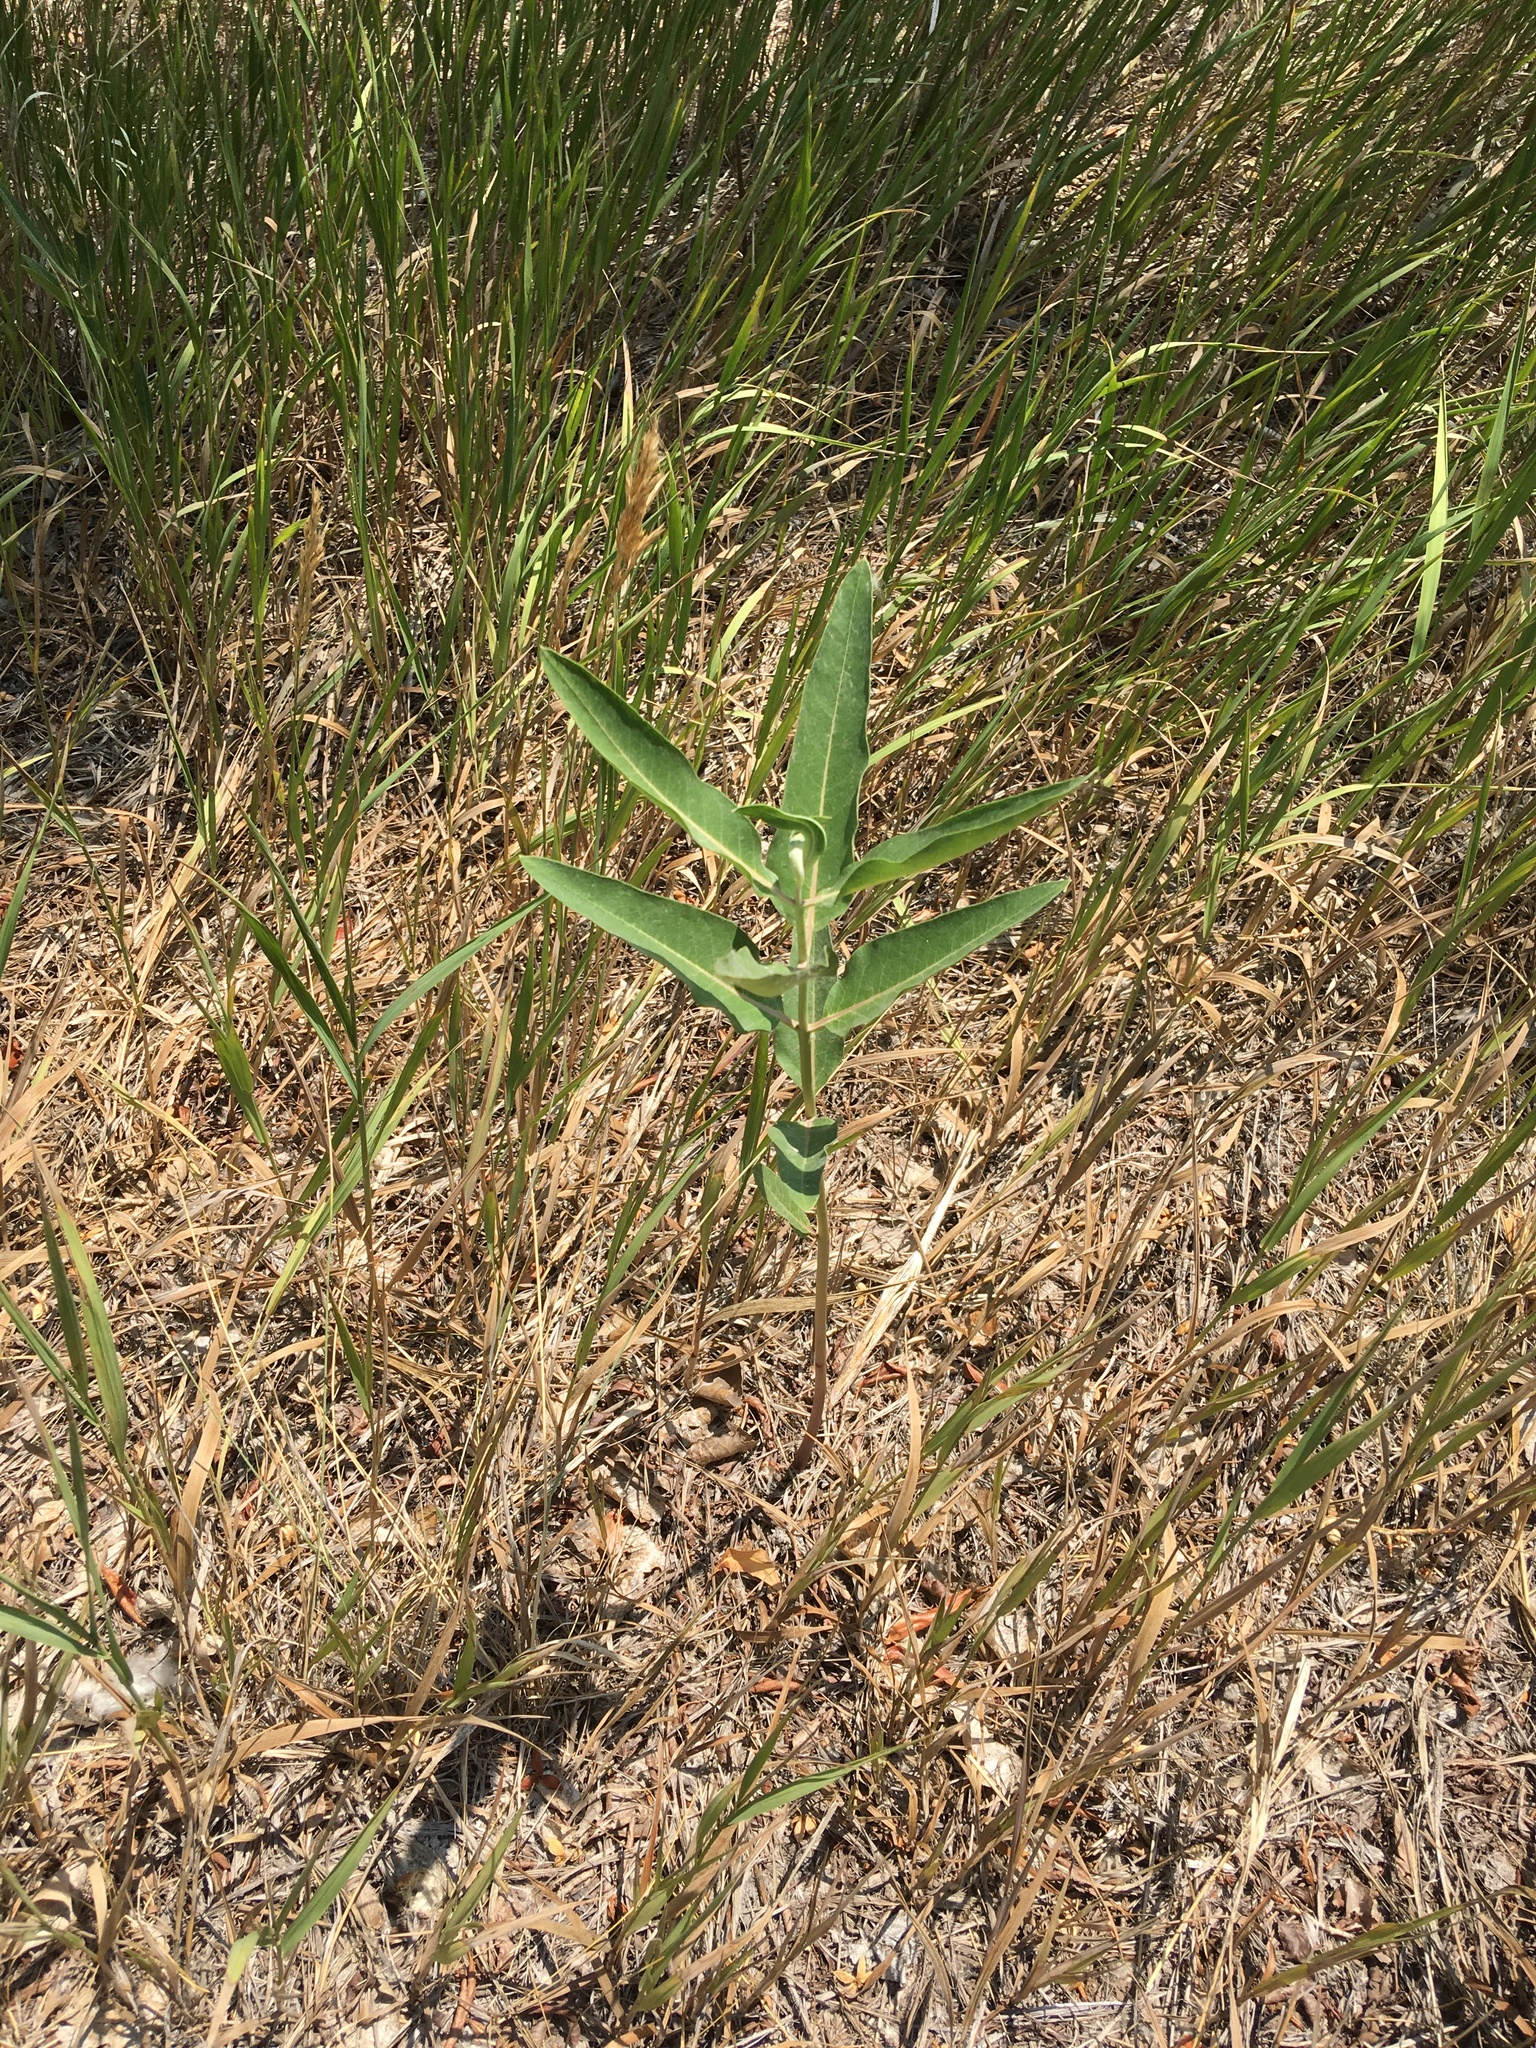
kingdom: Plantae
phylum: Tracheophyta
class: Magnoliopsida
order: Gentianales
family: Apocynaceae
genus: Asclepias
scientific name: Asclepias speciosa
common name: Showy milkweed
